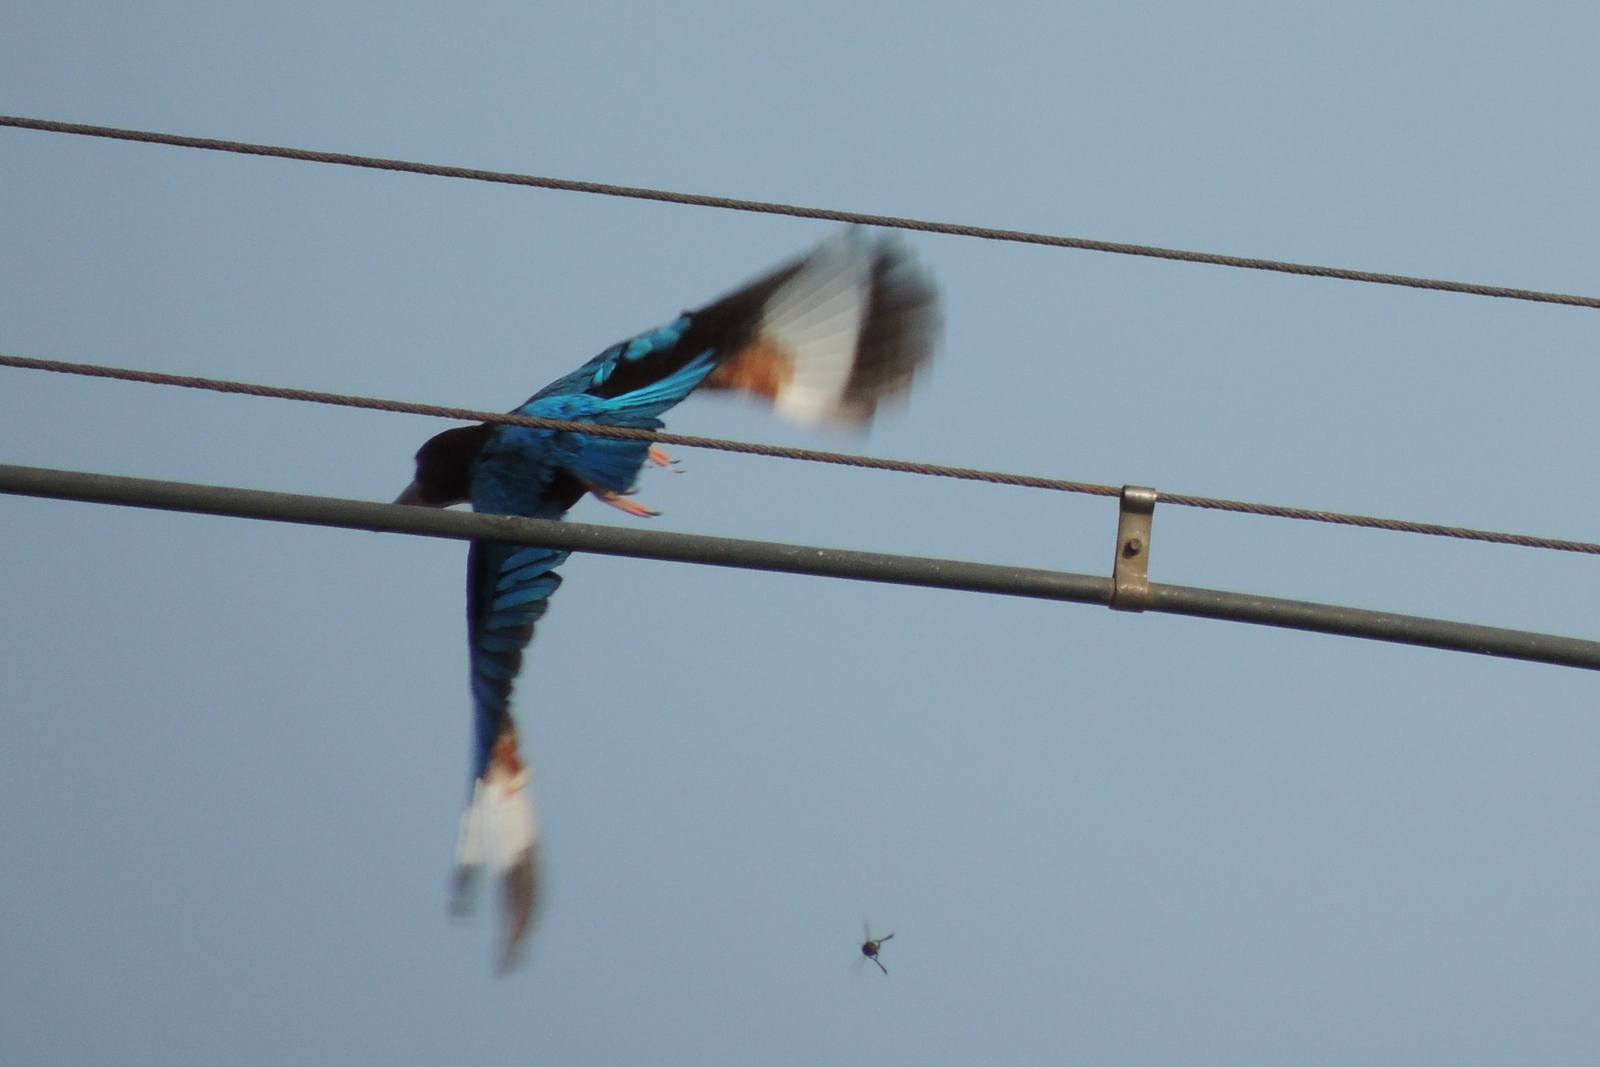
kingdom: Animalia
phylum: Chordata
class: Aves
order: Coraciiformes
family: Alcedinidae
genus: Halcyon
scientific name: Halcyon smyrnensis
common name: White-throated kingfisher
